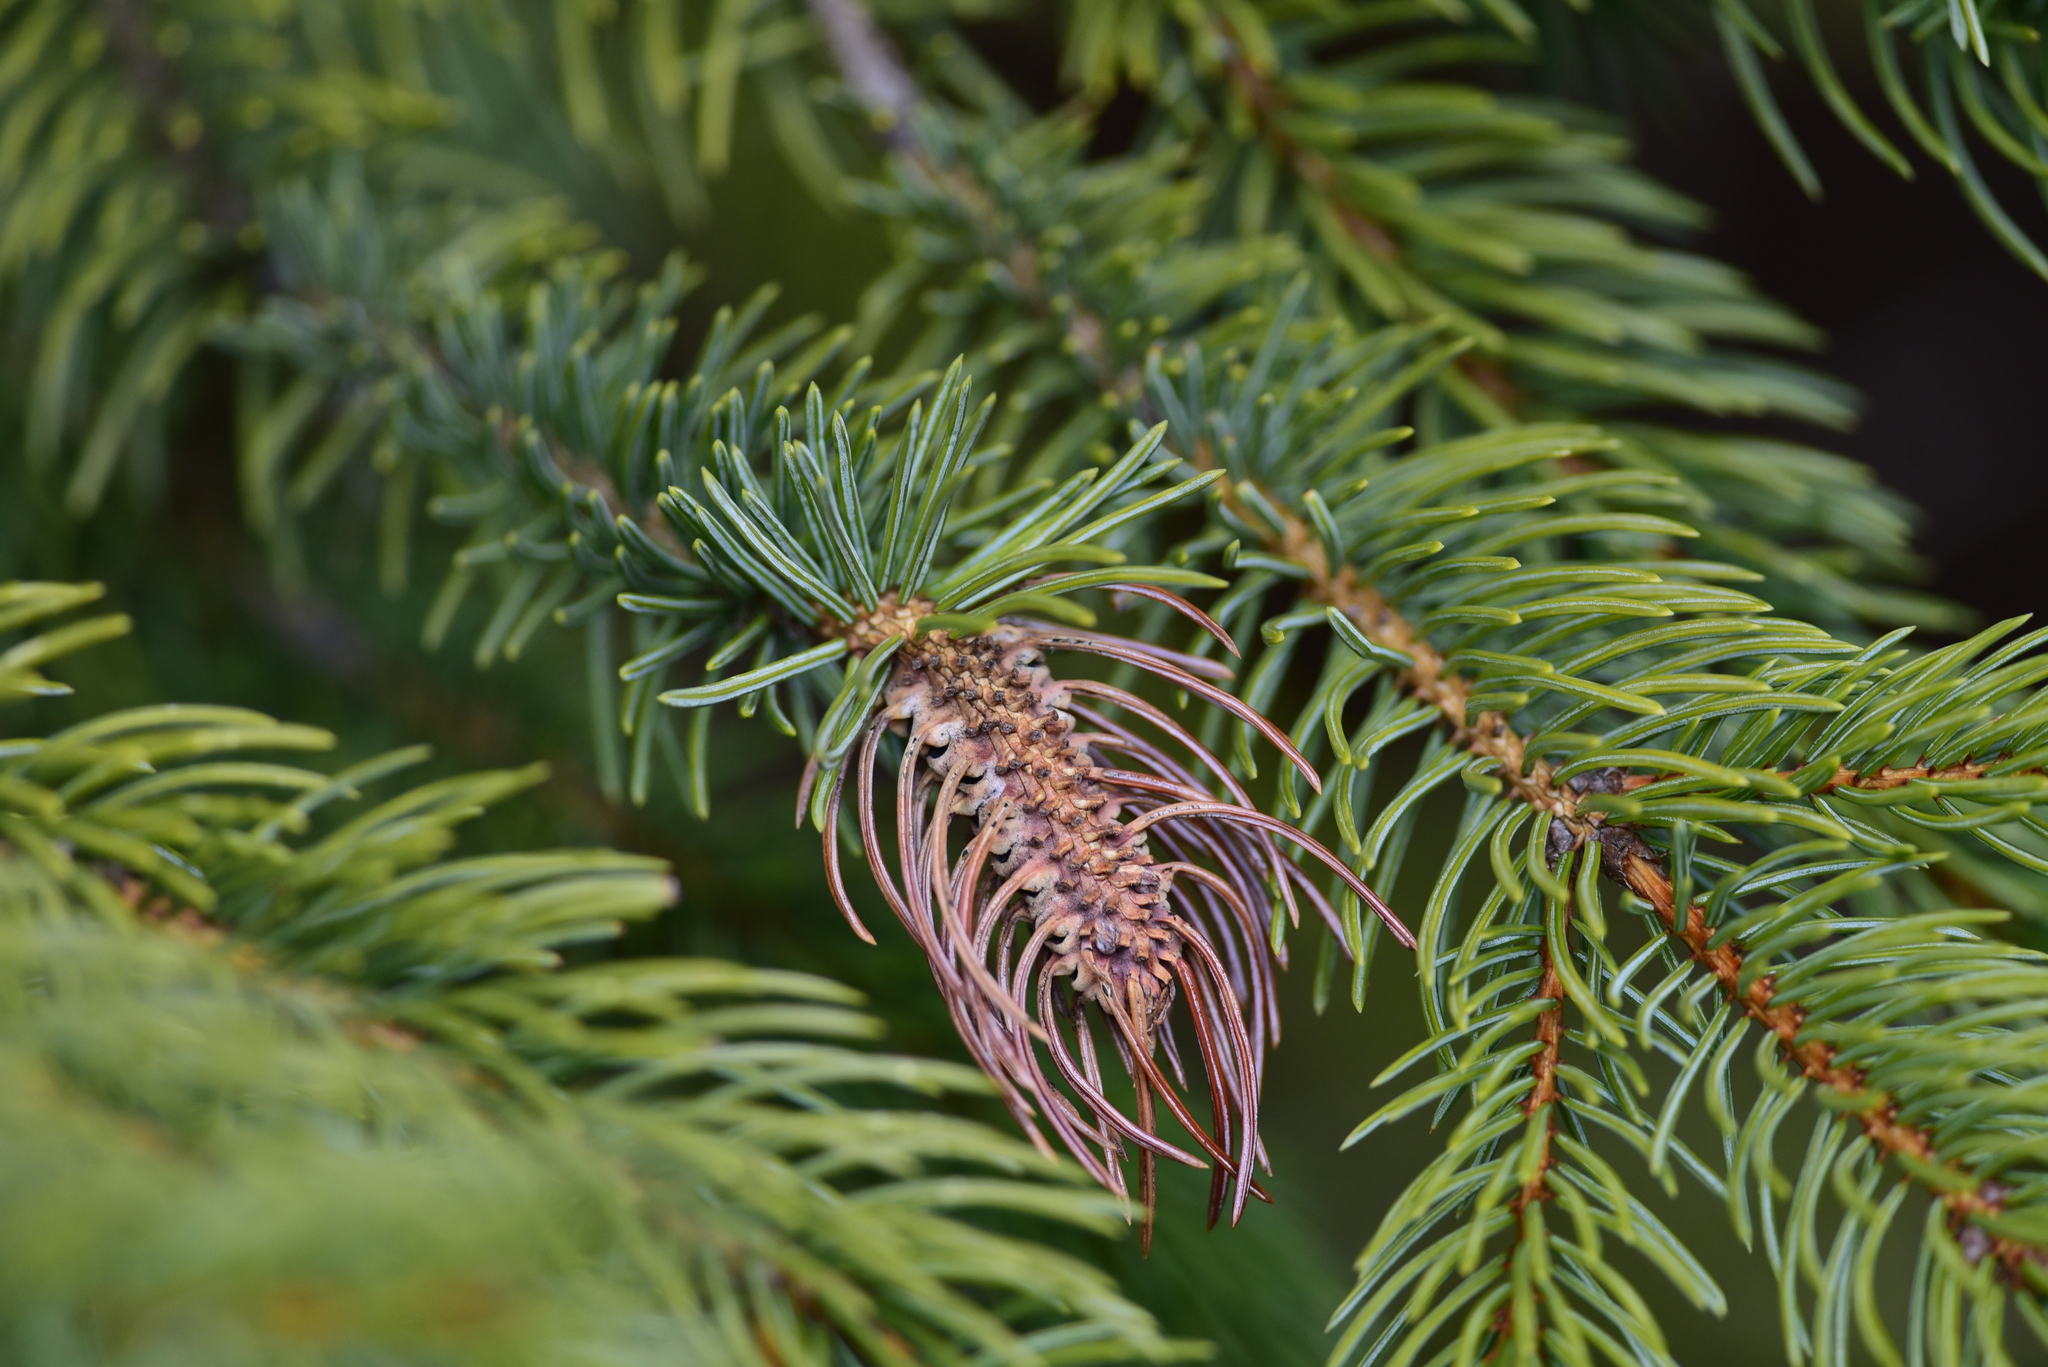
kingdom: Animalia
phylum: Arthropoda
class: Insecta
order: Hemiptera
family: Adelgidae
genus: Adelges
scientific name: Adelges cooleyi
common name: Cooley spruce gall adelgid
